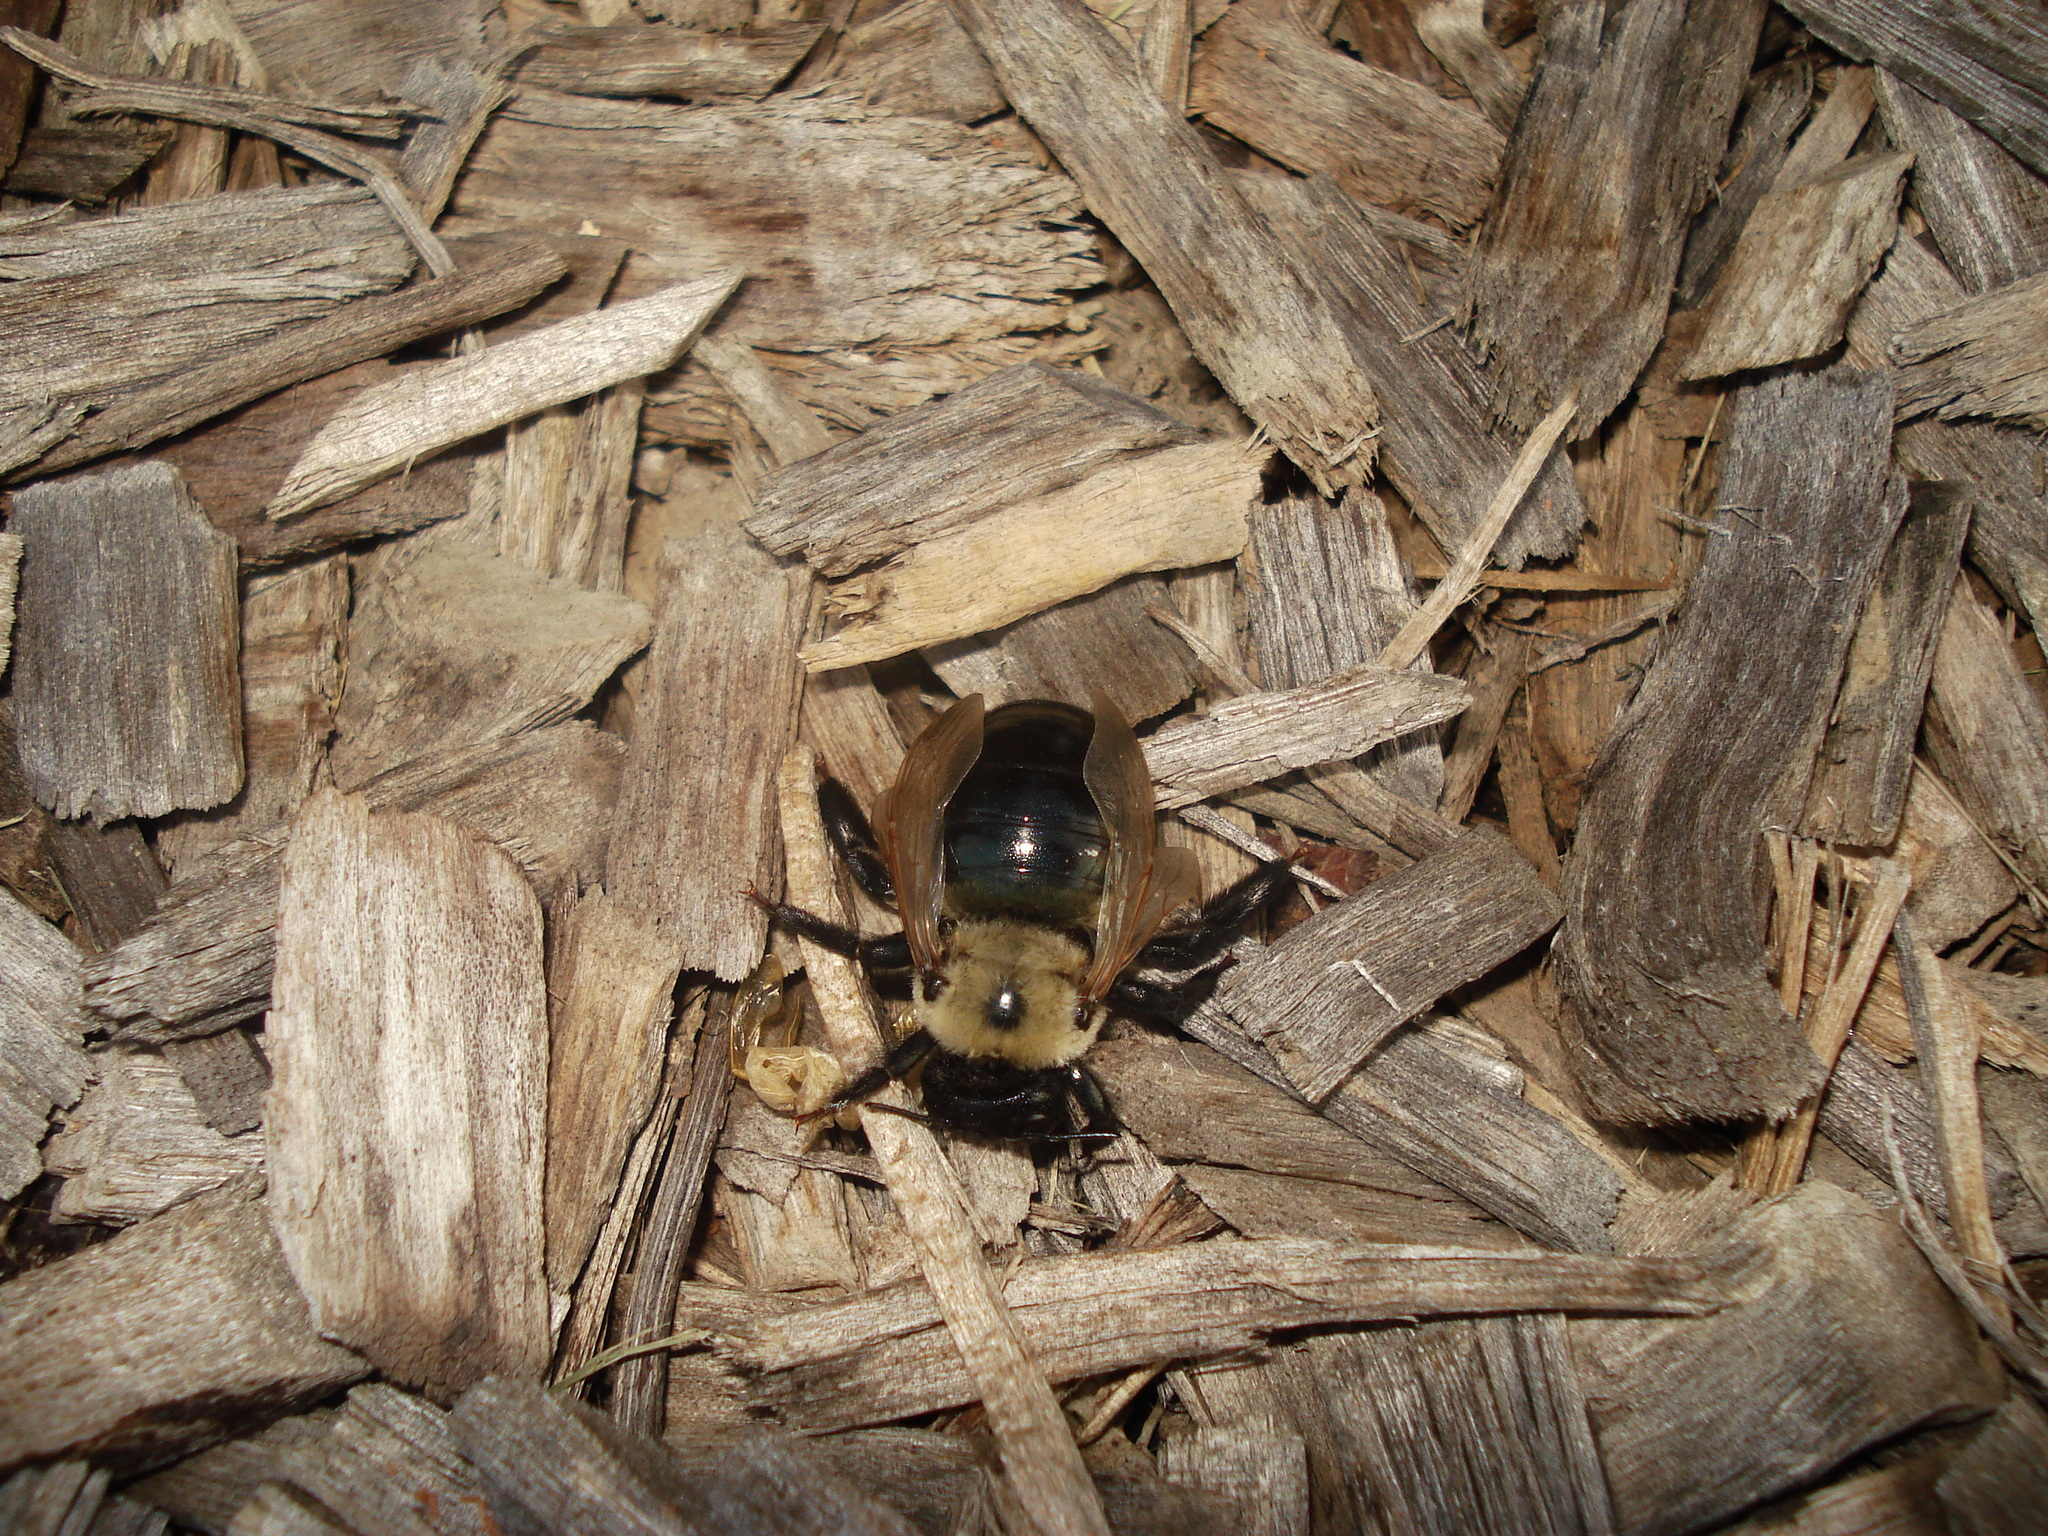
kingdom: Animalia
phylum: Arthropoda
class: Insecta
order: Hymenoptera
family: Apidae
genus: Xylocopa
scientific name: Xylocopa virginica
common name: Carpenter bee
